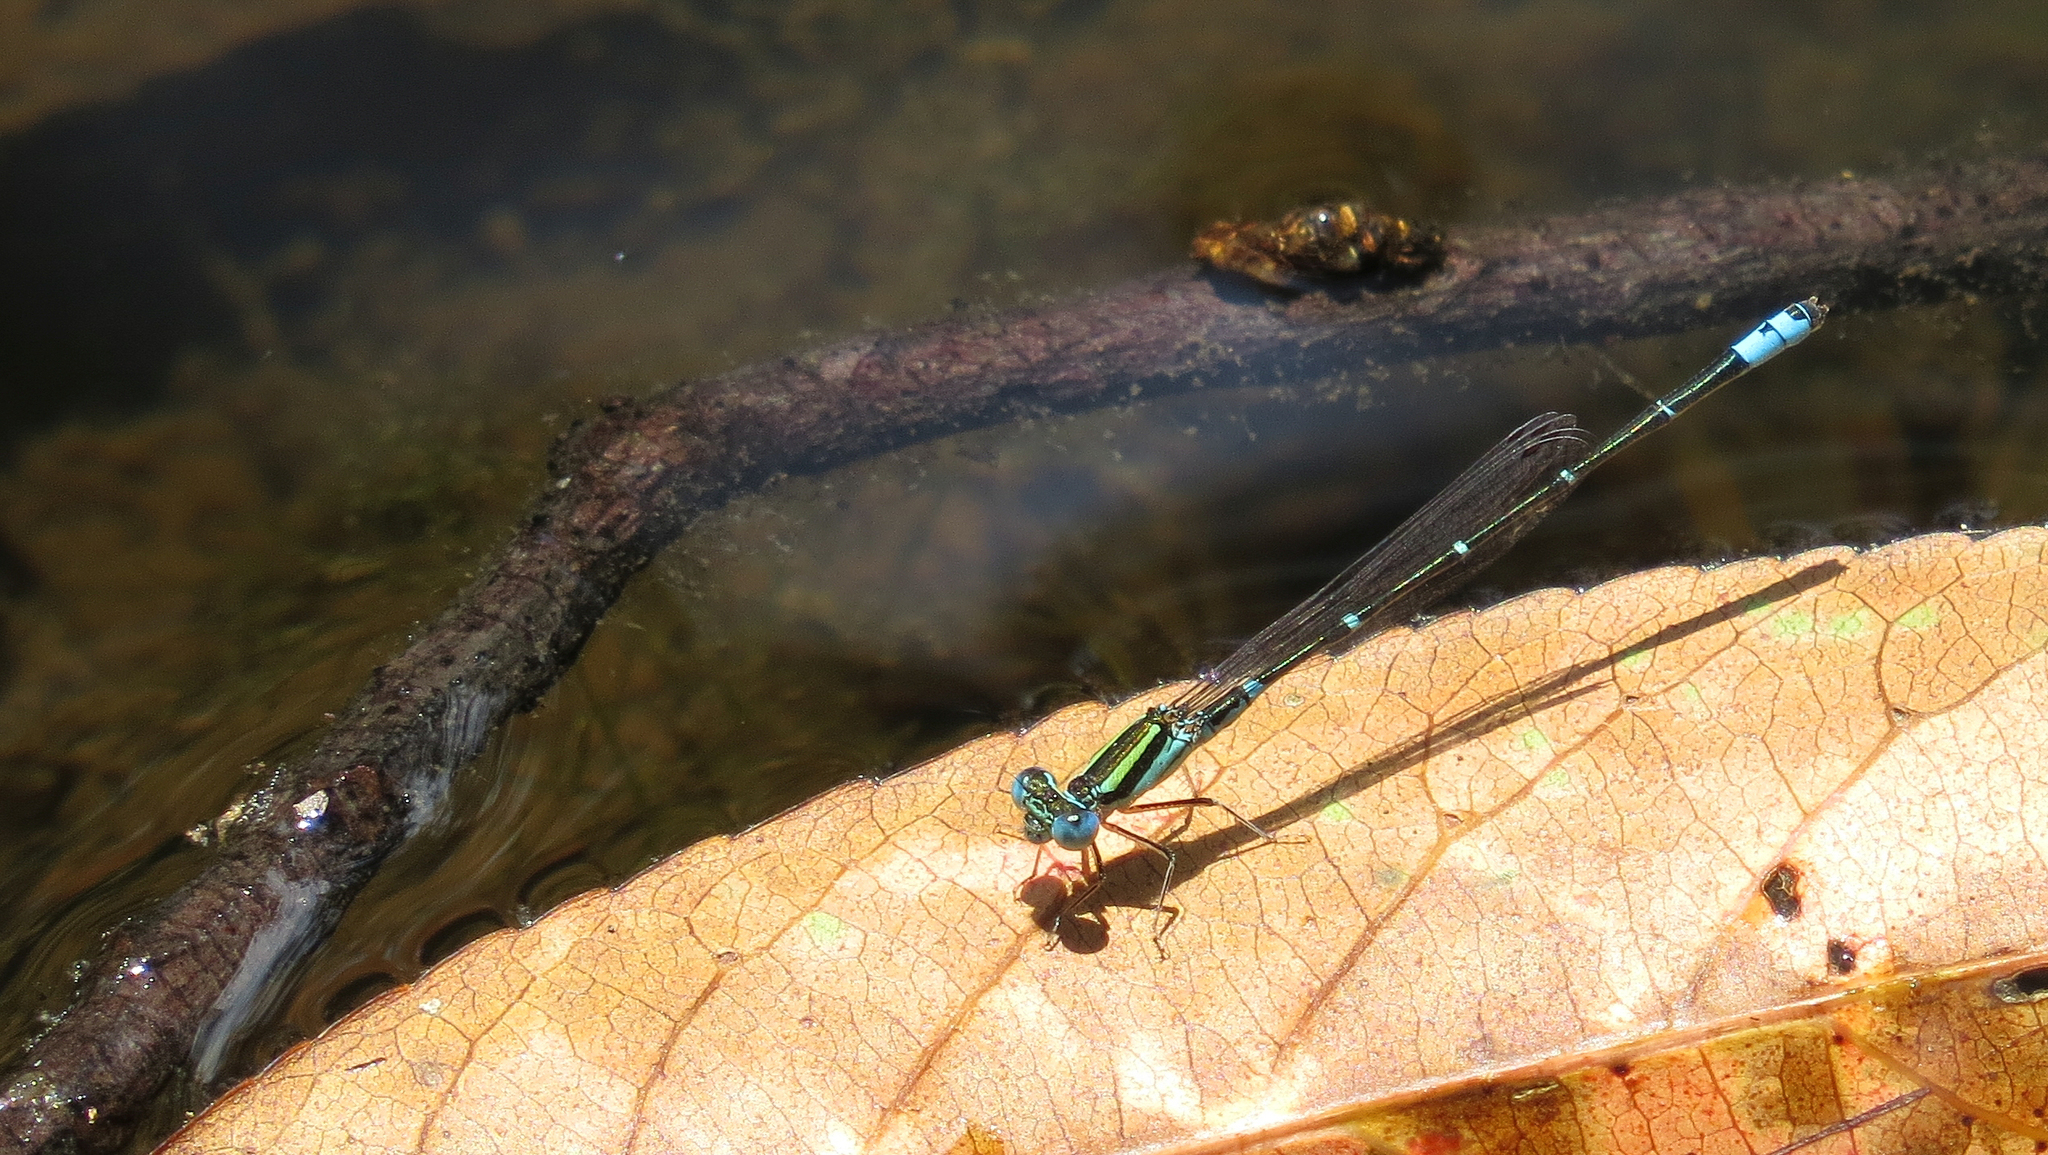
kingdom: Animalia
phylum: Arthropoda
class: Insecta
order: Odonata
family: Coenagrionidae
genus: Austroagrion
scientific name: Austroagrion watsoni
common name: Eastern billabongfly
